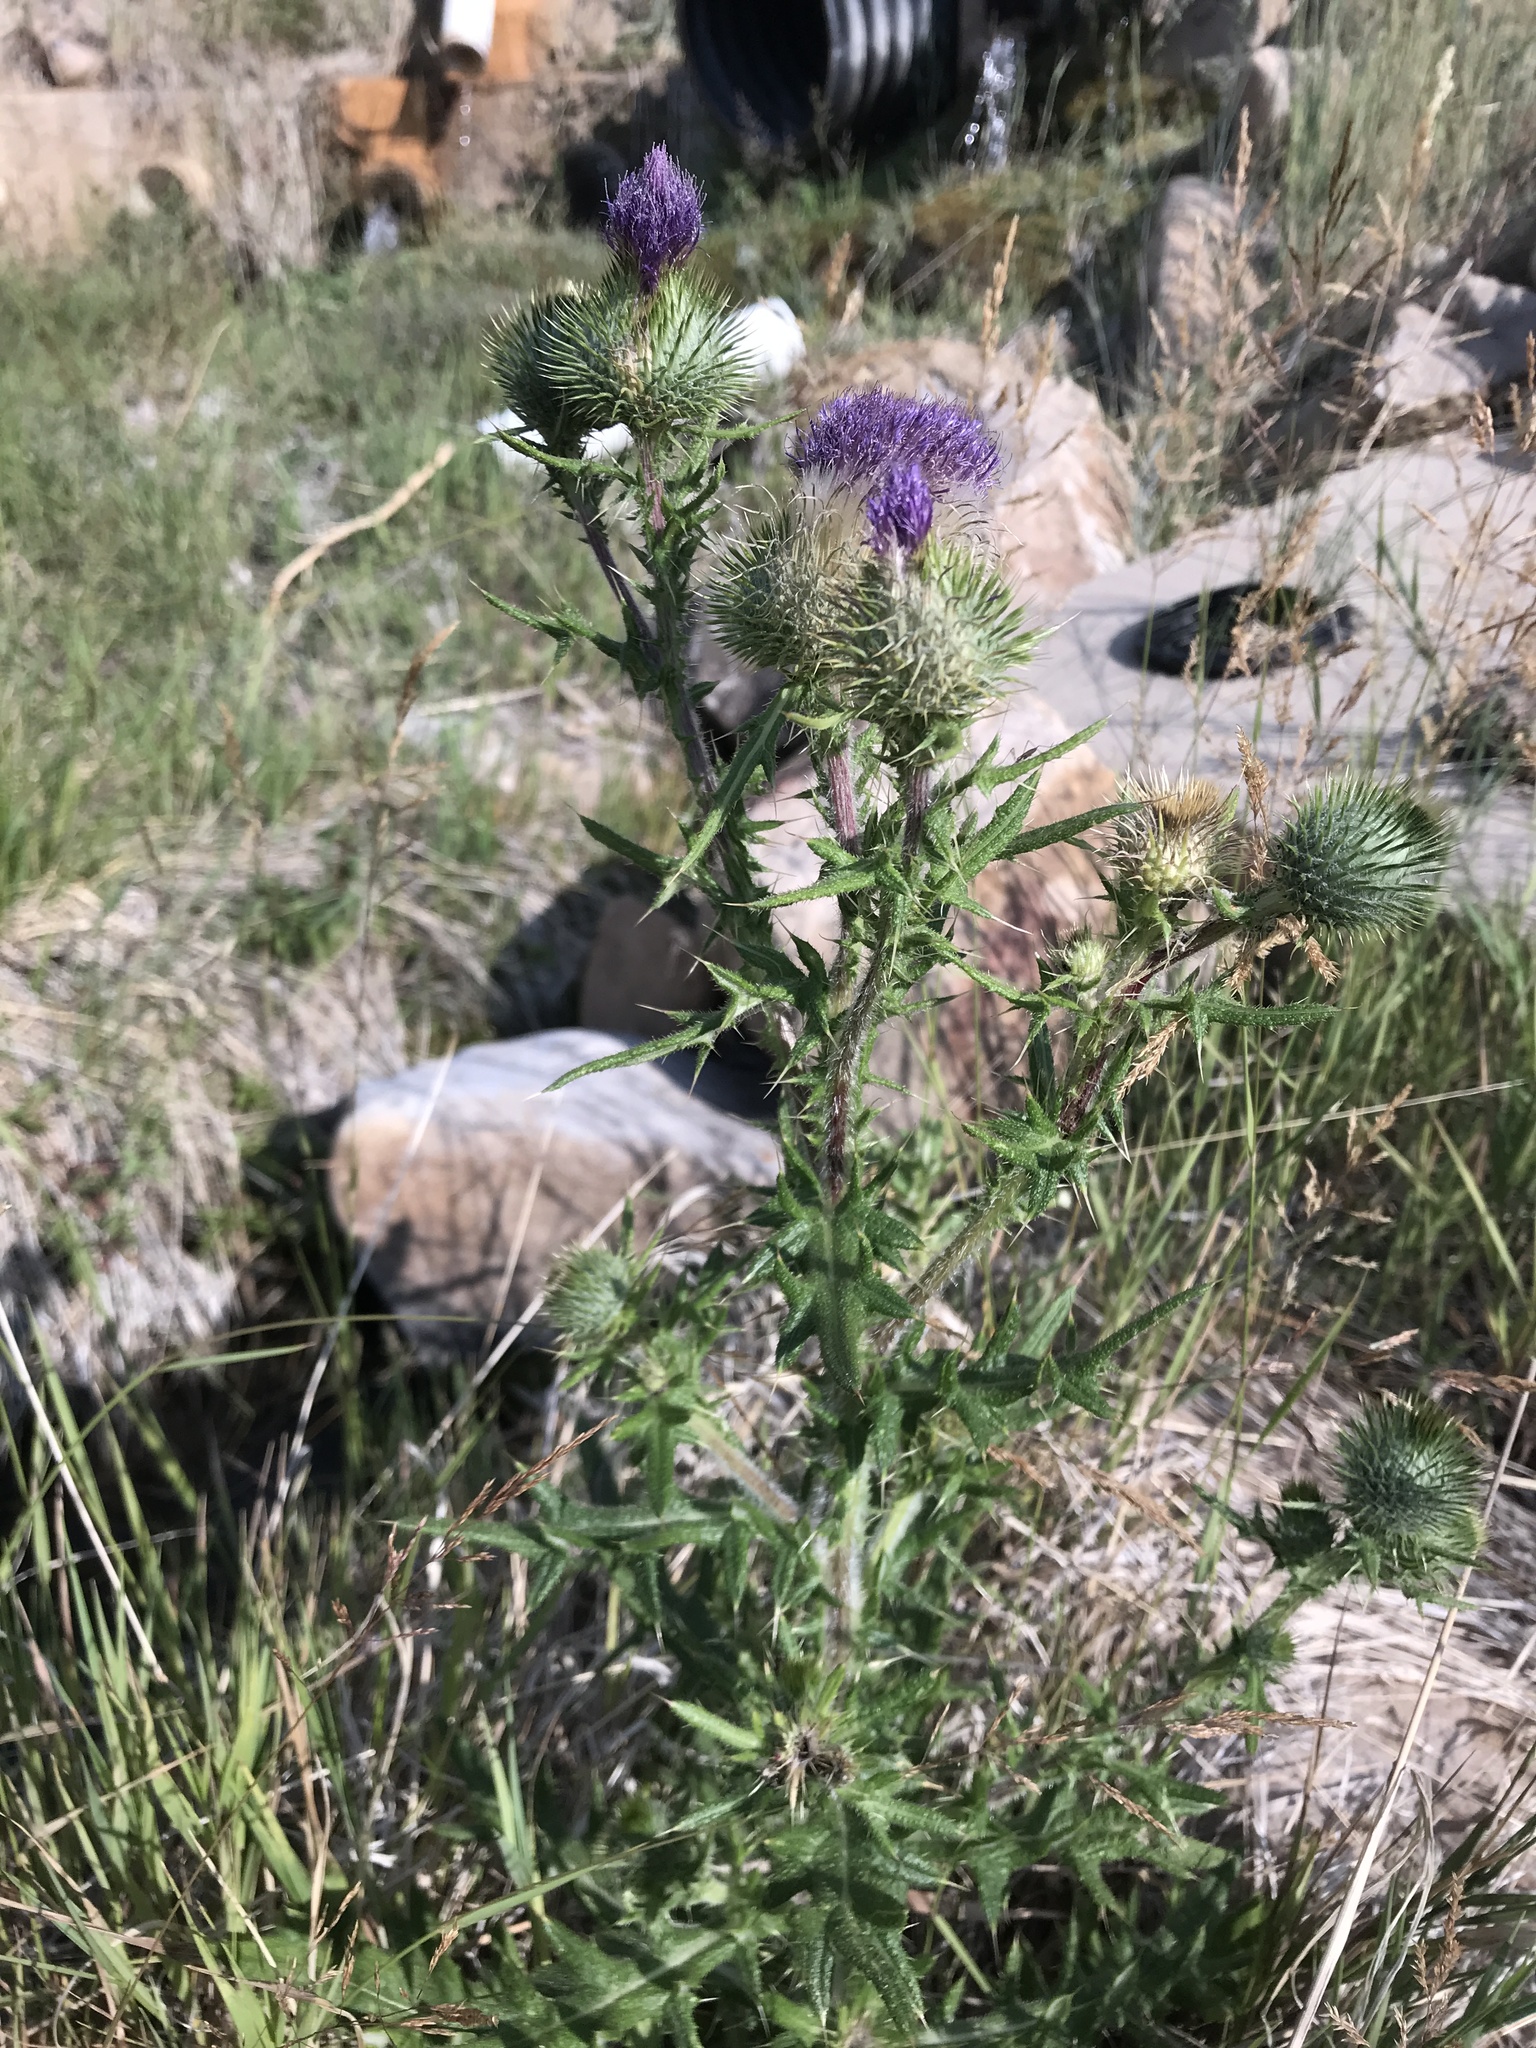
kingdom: Plantae
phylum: Tracheophyta
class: Magnoliopsida
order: Asterales
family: Asteraceae
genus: Cirsium
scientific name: Cirsium vulgare
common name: Bull thistle
